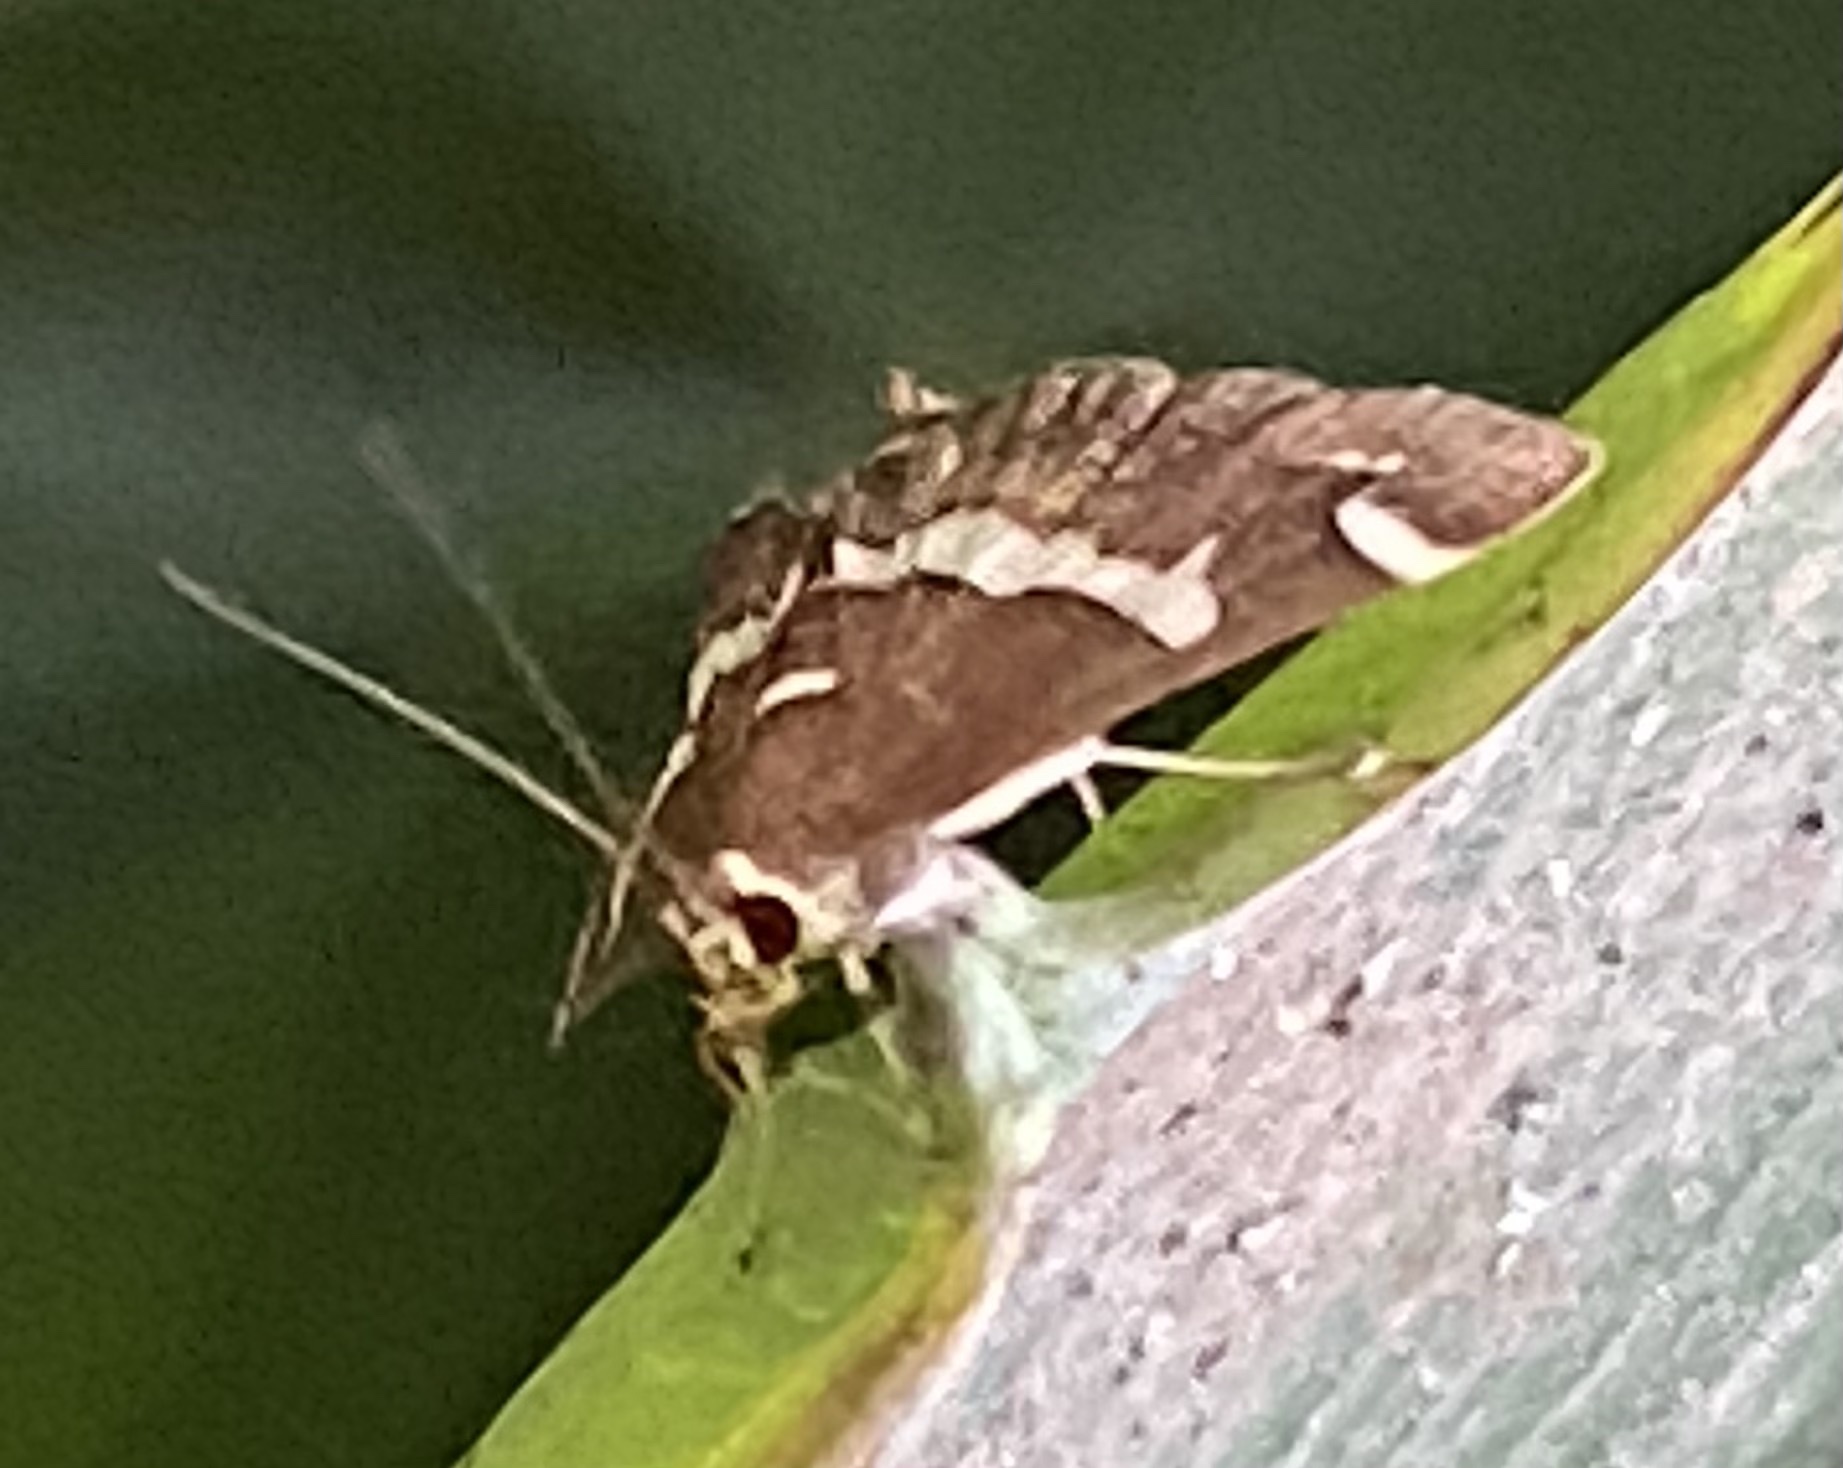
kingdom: Animalia
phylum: Arthropoda
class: Insecta
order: Lepidoptera
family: Crambidae
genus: Spoladea
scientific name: Spoladea recurvalis
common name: Beet webworm moth
